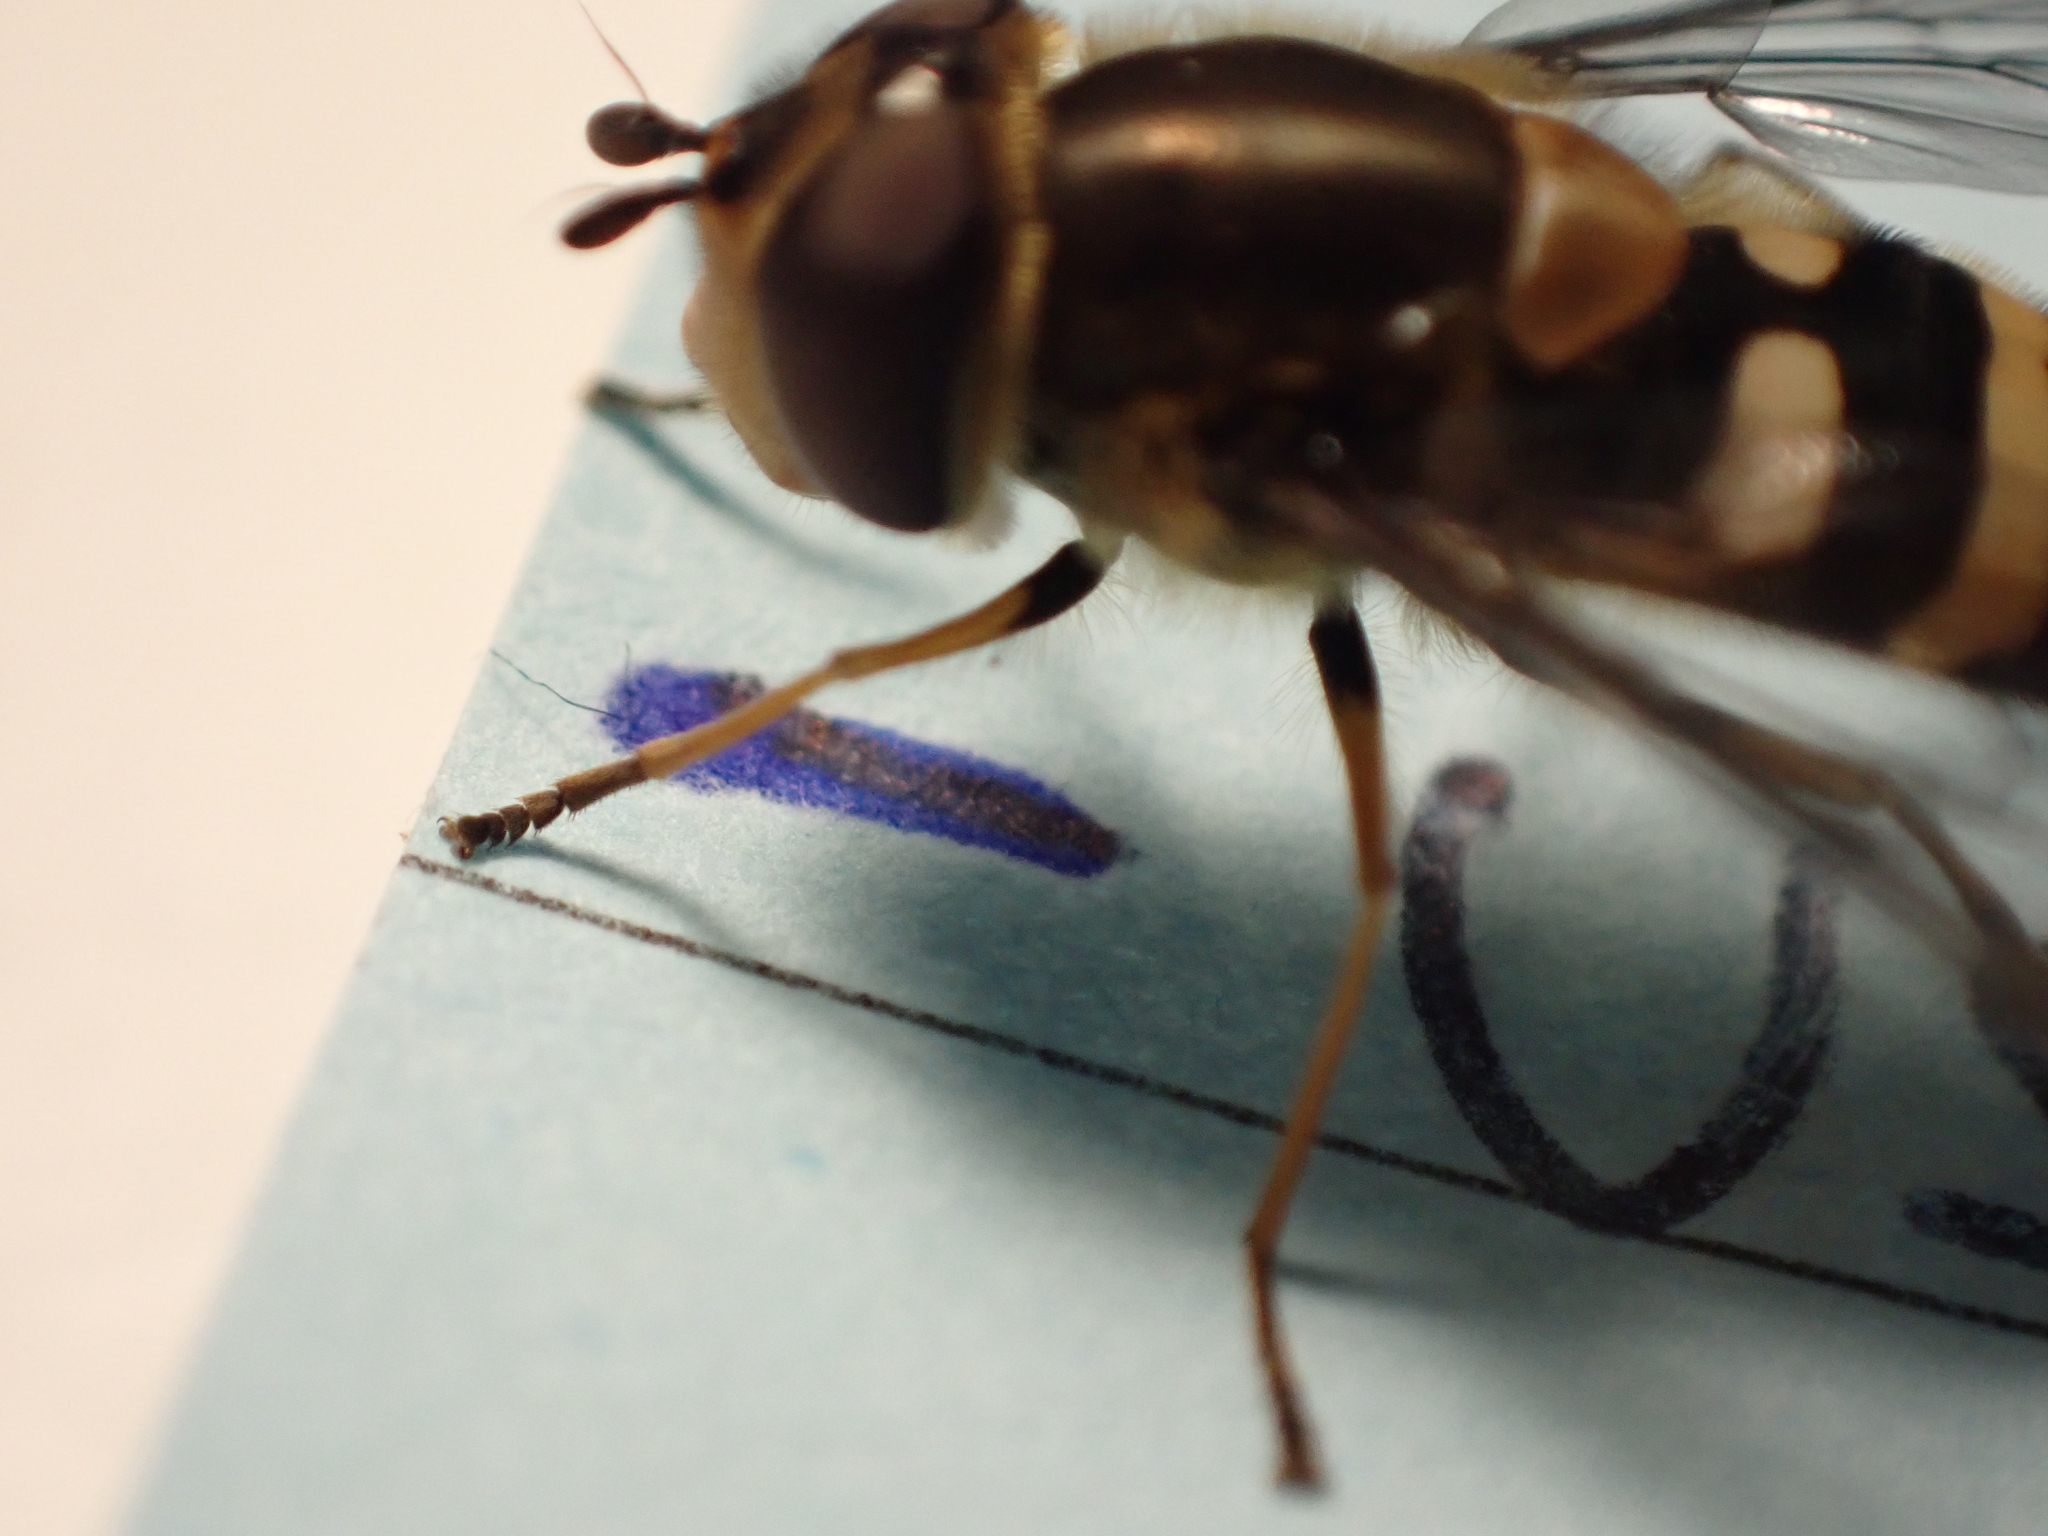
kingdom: Animalia
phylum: Arthropoda
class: Insecta
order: Diptera
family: Syrphidae
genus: Syrphus
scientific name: Syrphus torvus
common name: Hairy-eyed flower fly
